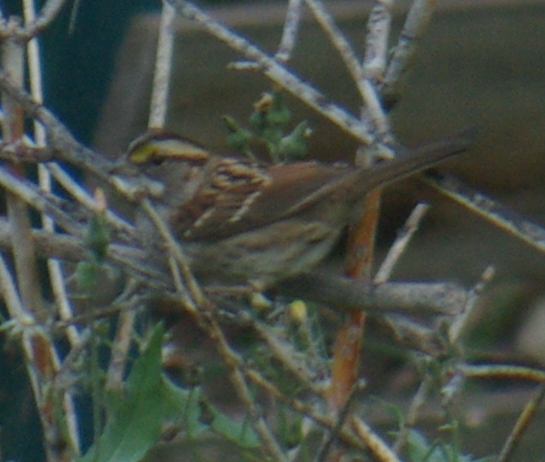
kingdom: Animalia
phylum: Chordata
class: Aves
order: Passeriformes
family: Passerellidae
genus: Zonotrichia
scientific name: Zonotrichia albicollis
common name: White-throated sparrow
